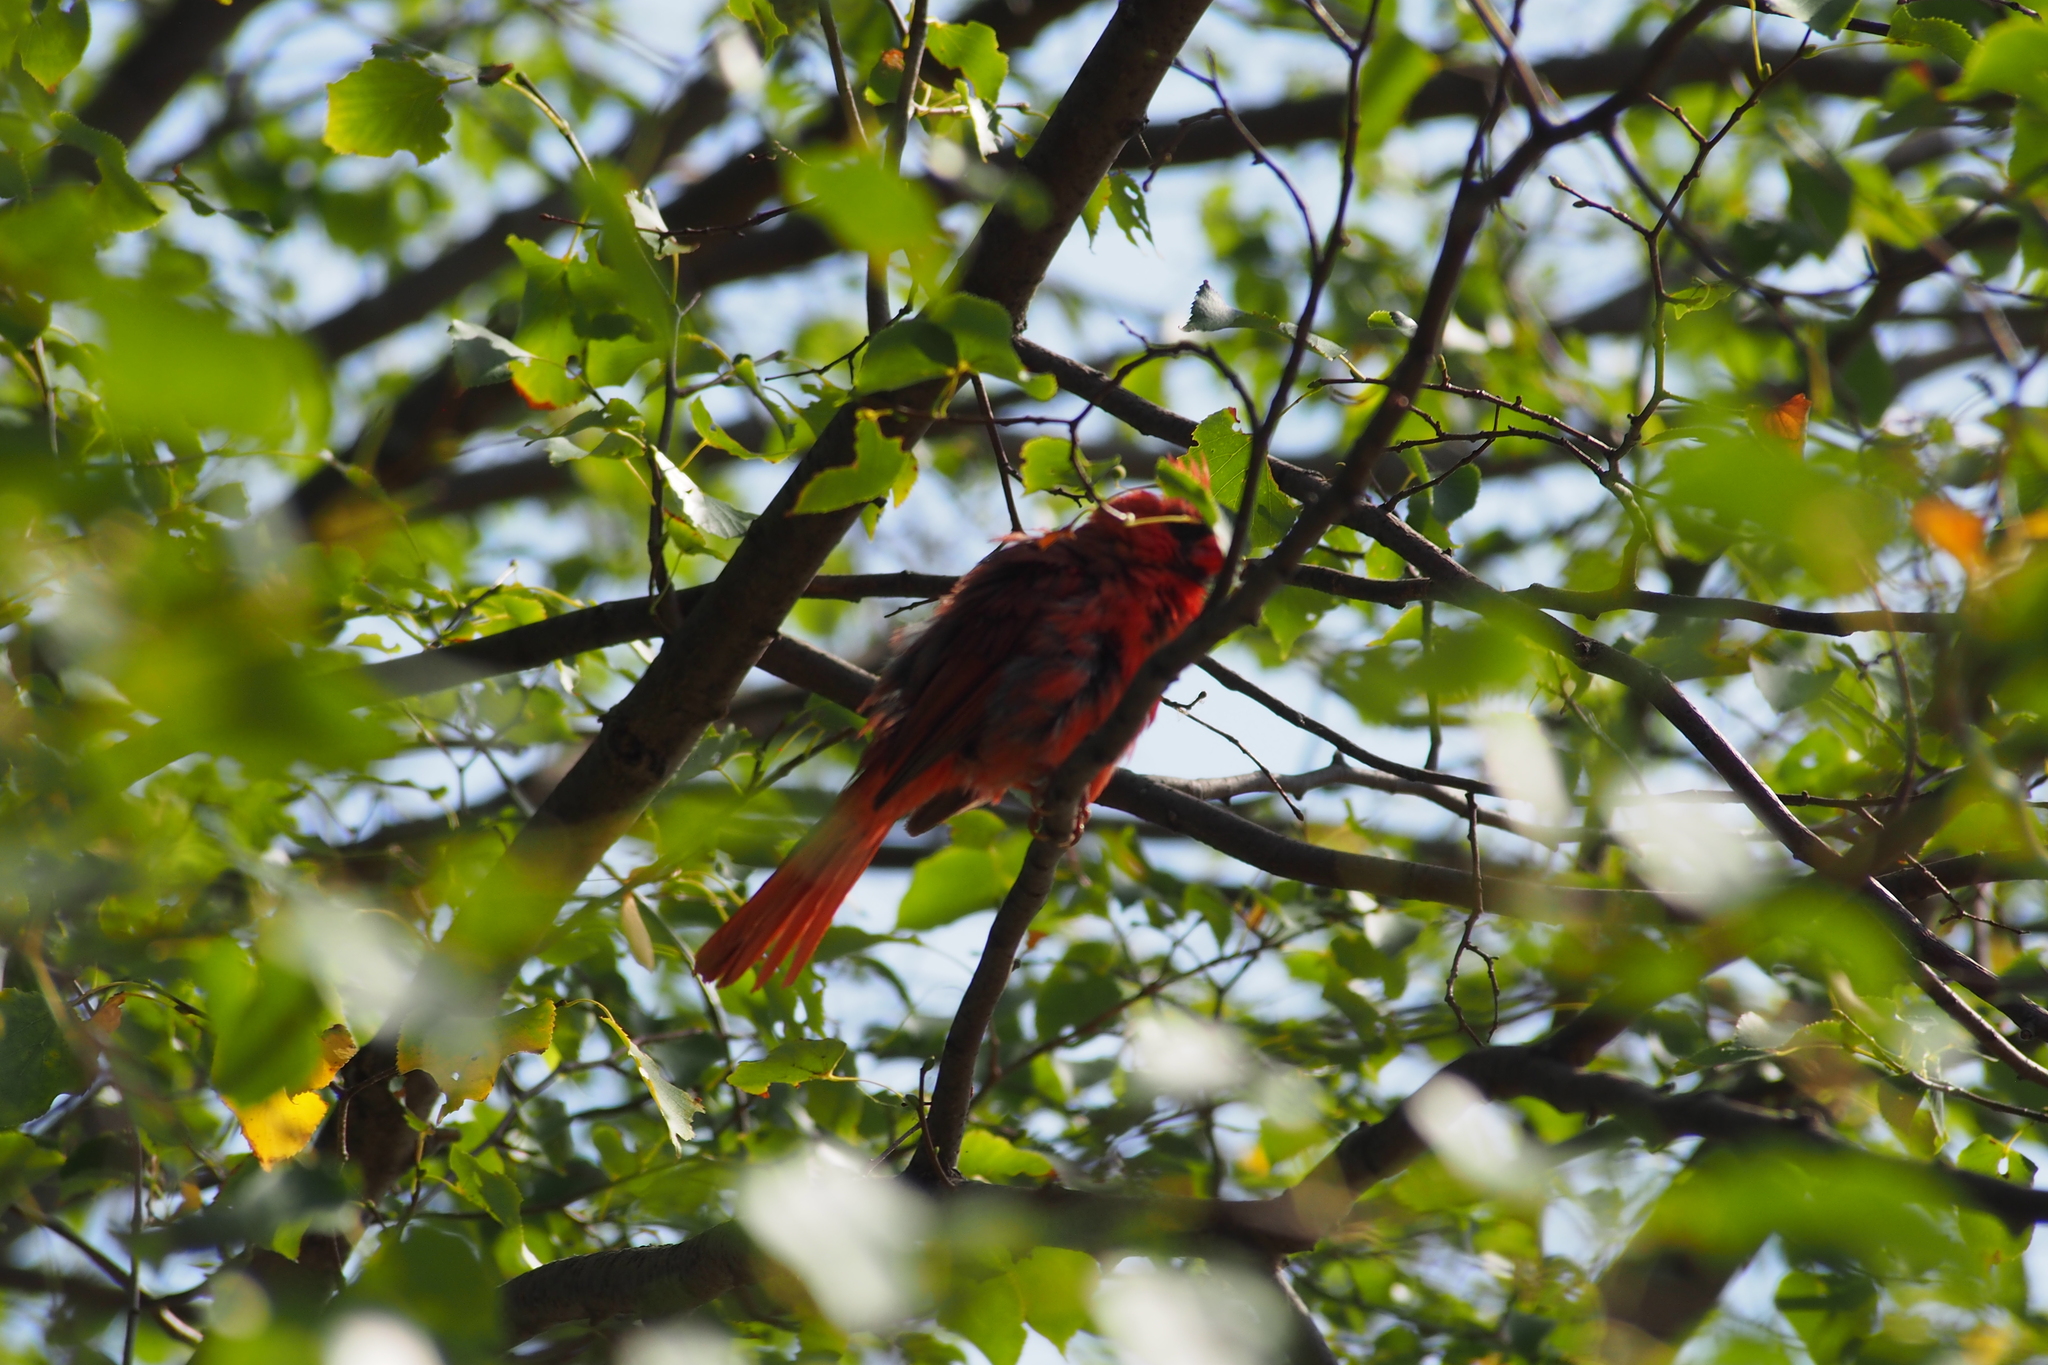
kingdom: Animalia
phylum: Chordata
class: Aves
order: Passeriformes
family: Cardinalidae
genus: Cardinalis
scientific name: Cardinalis cardinalis
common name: Northern cardinal
